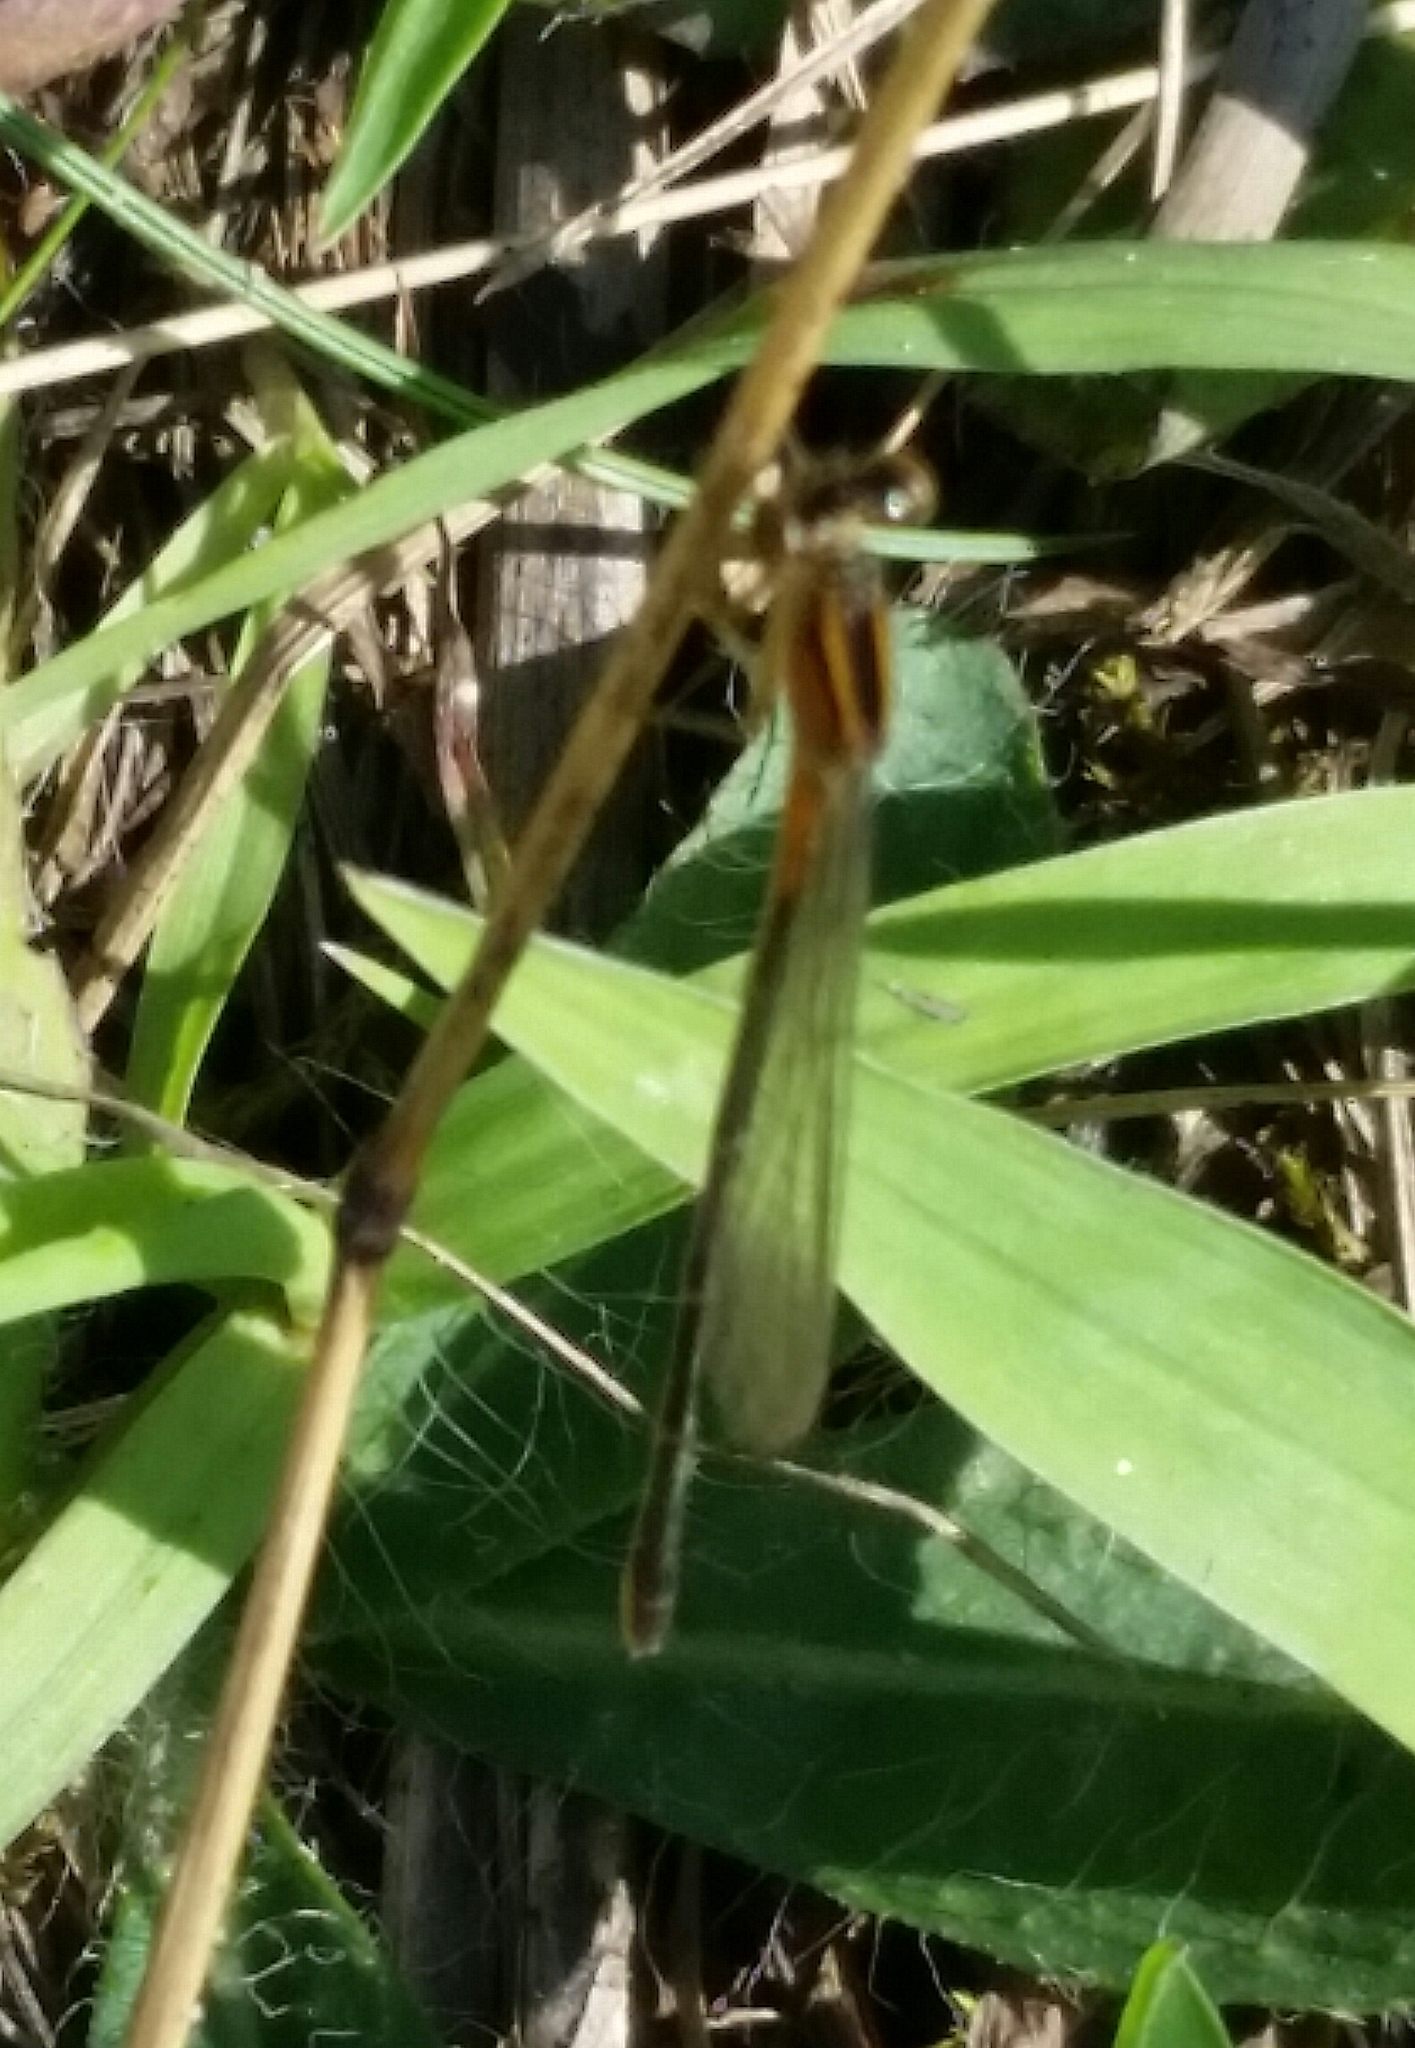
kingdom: Animalia
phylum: Arthropoda
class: Insecta
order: Odonata
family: Coenagrionidae
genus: Ischnura
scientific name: Ischnura verticalis
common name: Eastern forktail
